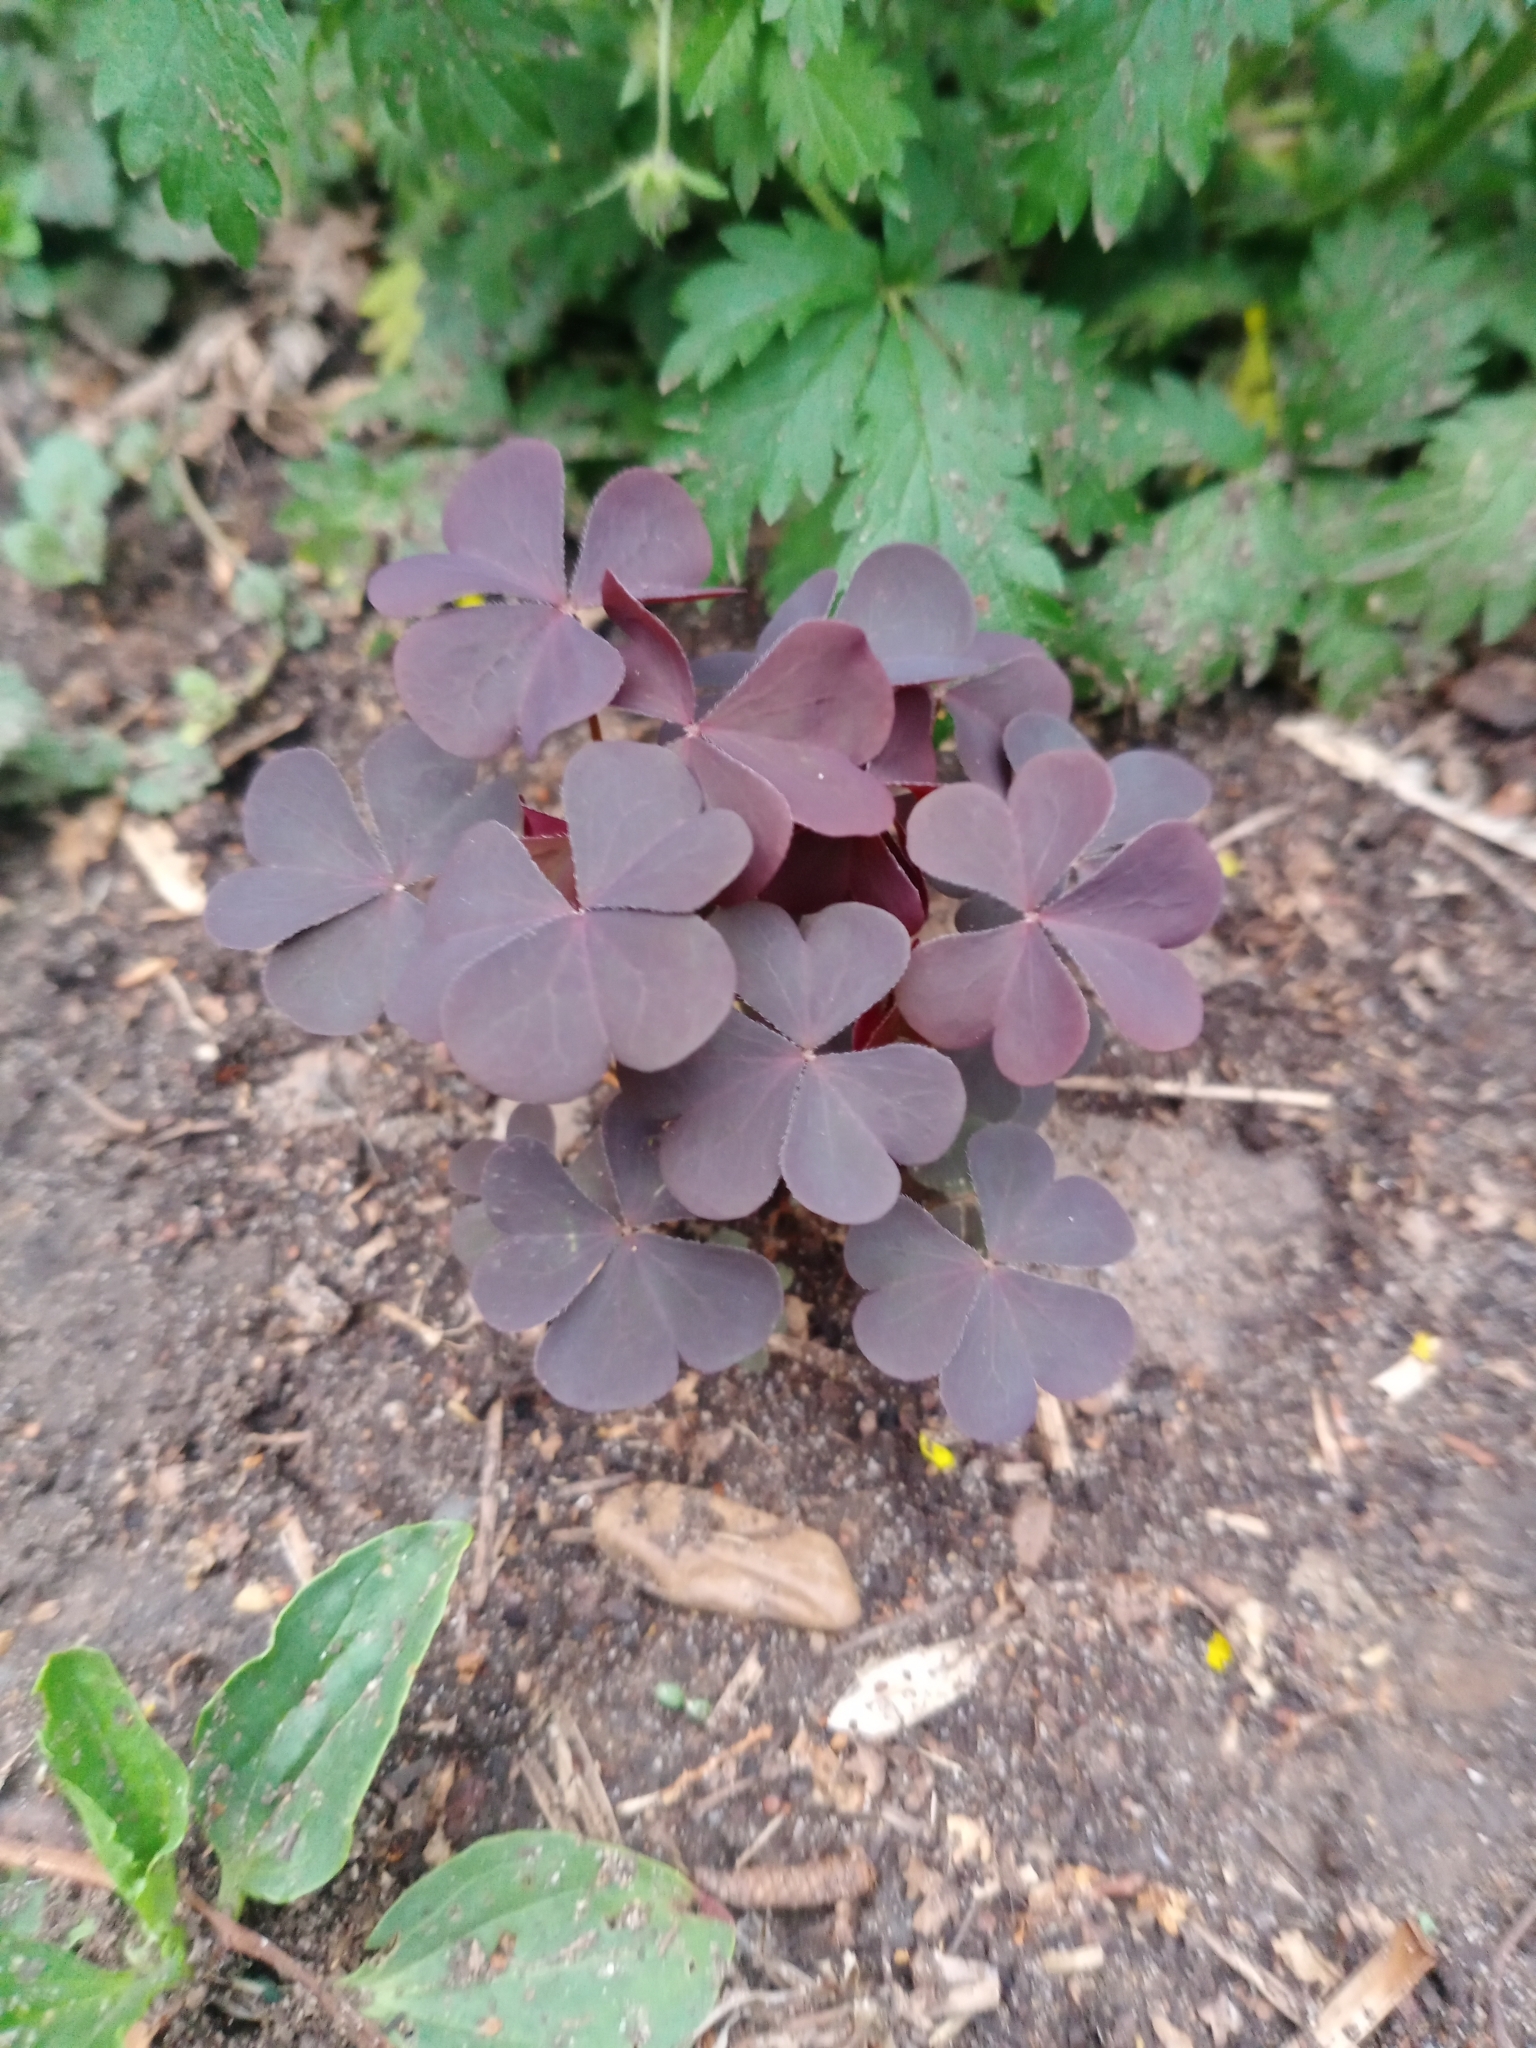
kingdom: Plantae
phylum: Tracheophyta
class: Magnoliopsida
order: Oxalidales
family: Oxalidaceae
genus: Oxalis
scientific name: Oxalis stricta
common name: Upright yellow-sorrel
